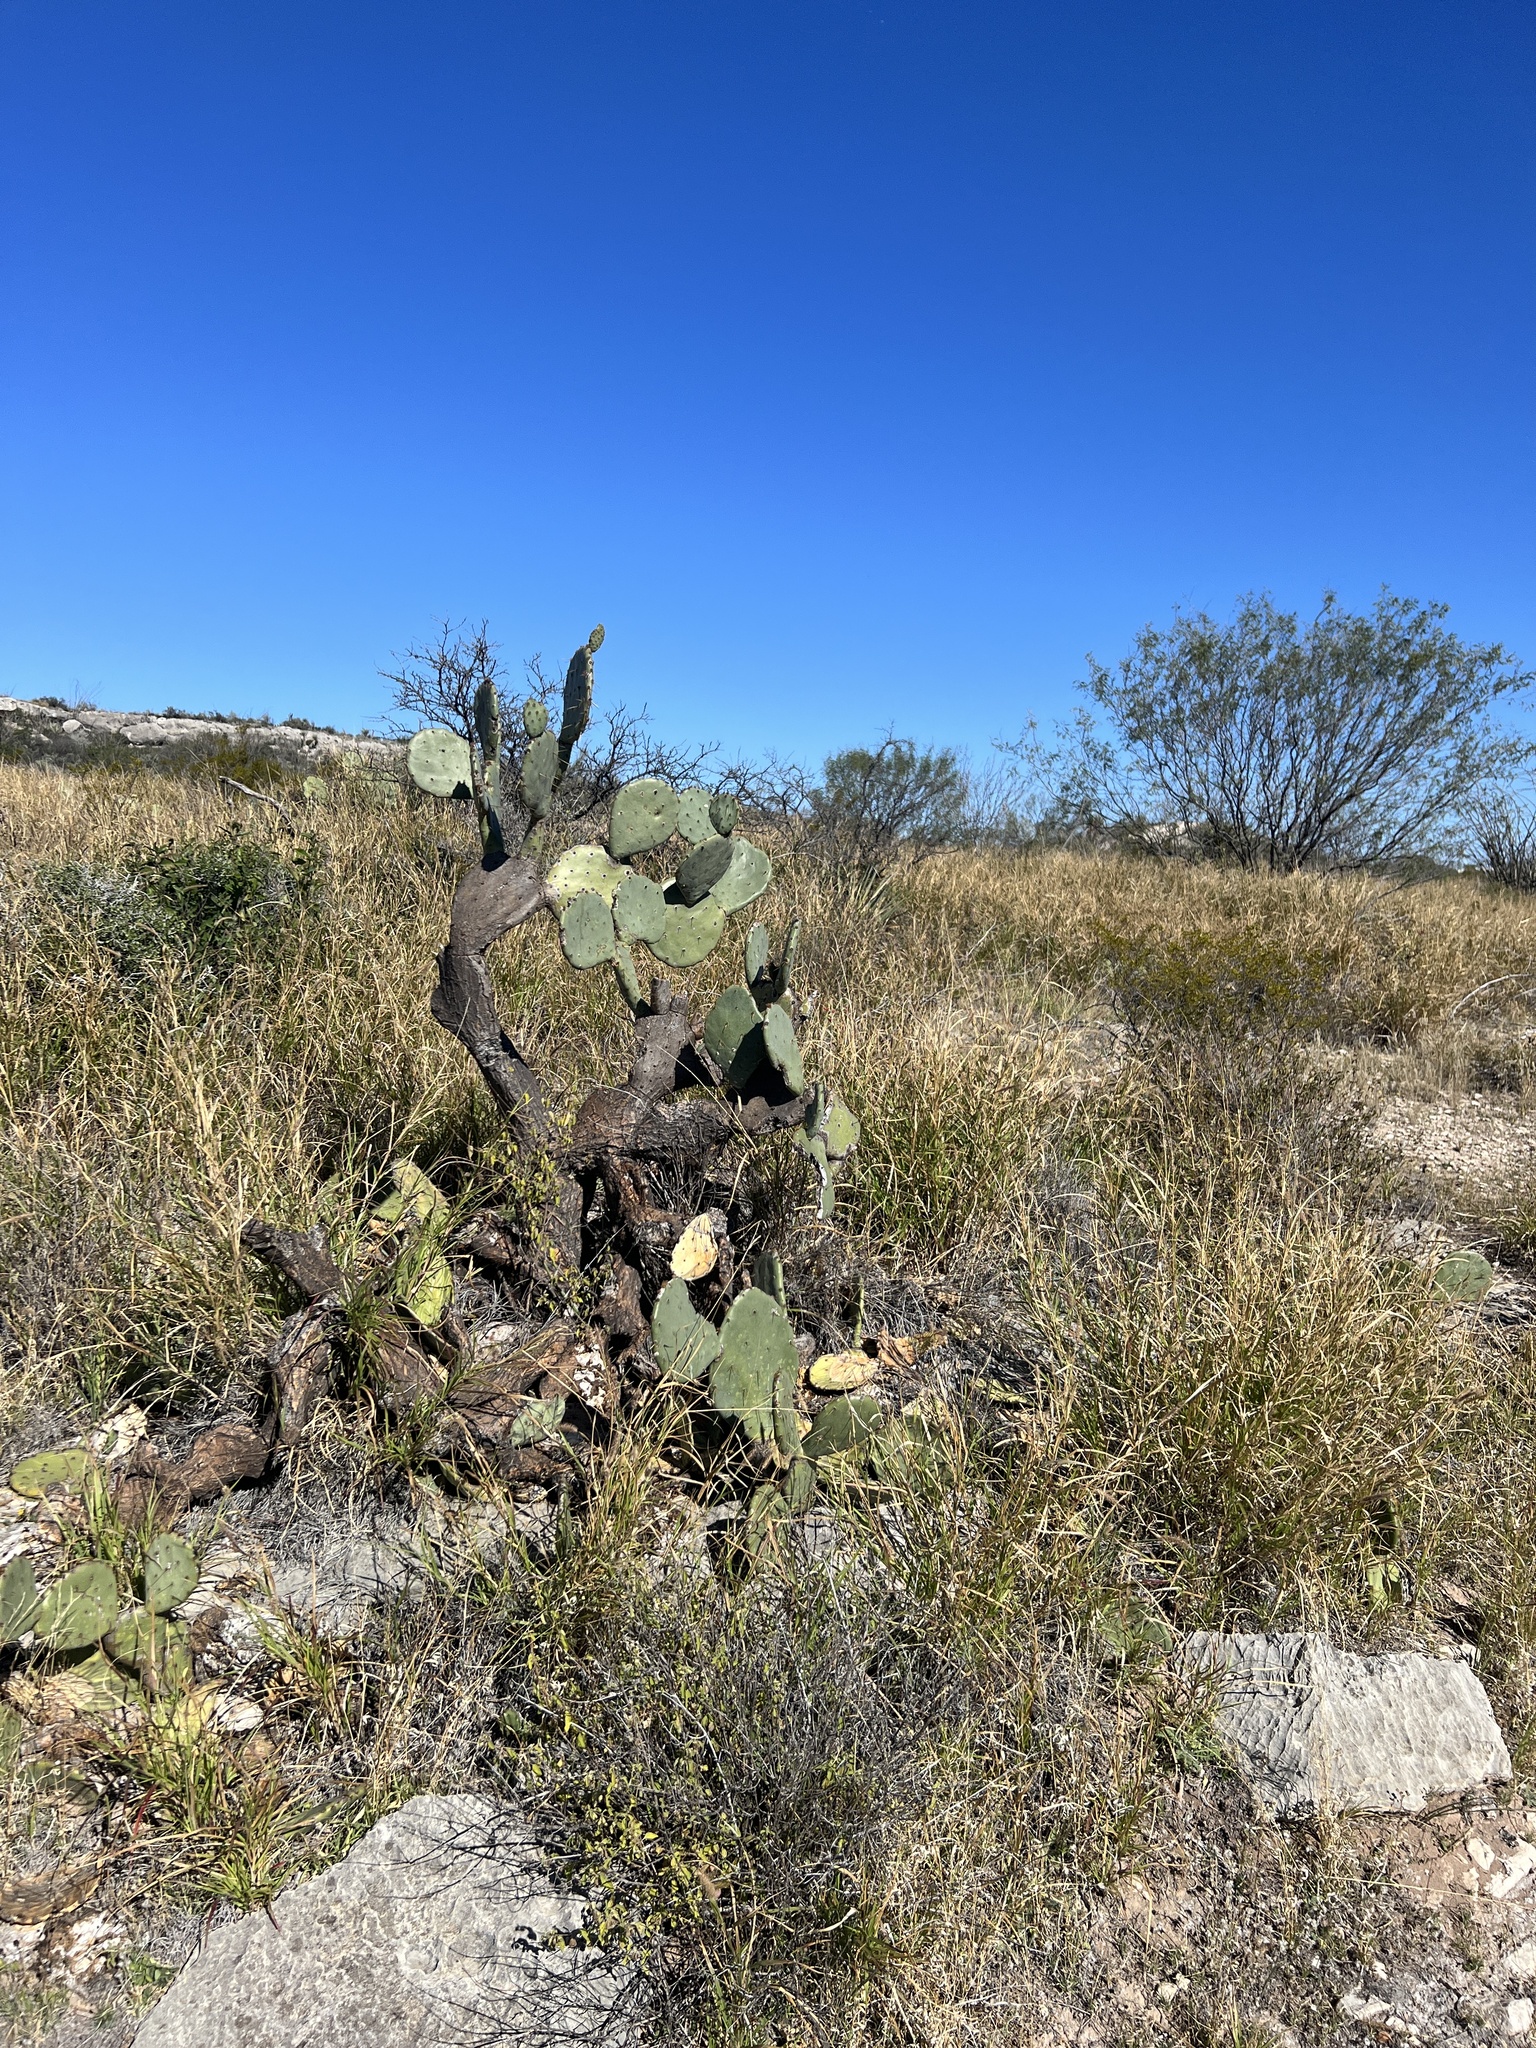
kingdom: Plantae
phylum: Tracheophyta
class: Magnoliopsida
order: Caryophyllales
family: Cactaceae
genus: Opuntia
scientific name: Opuntia orbiculata
